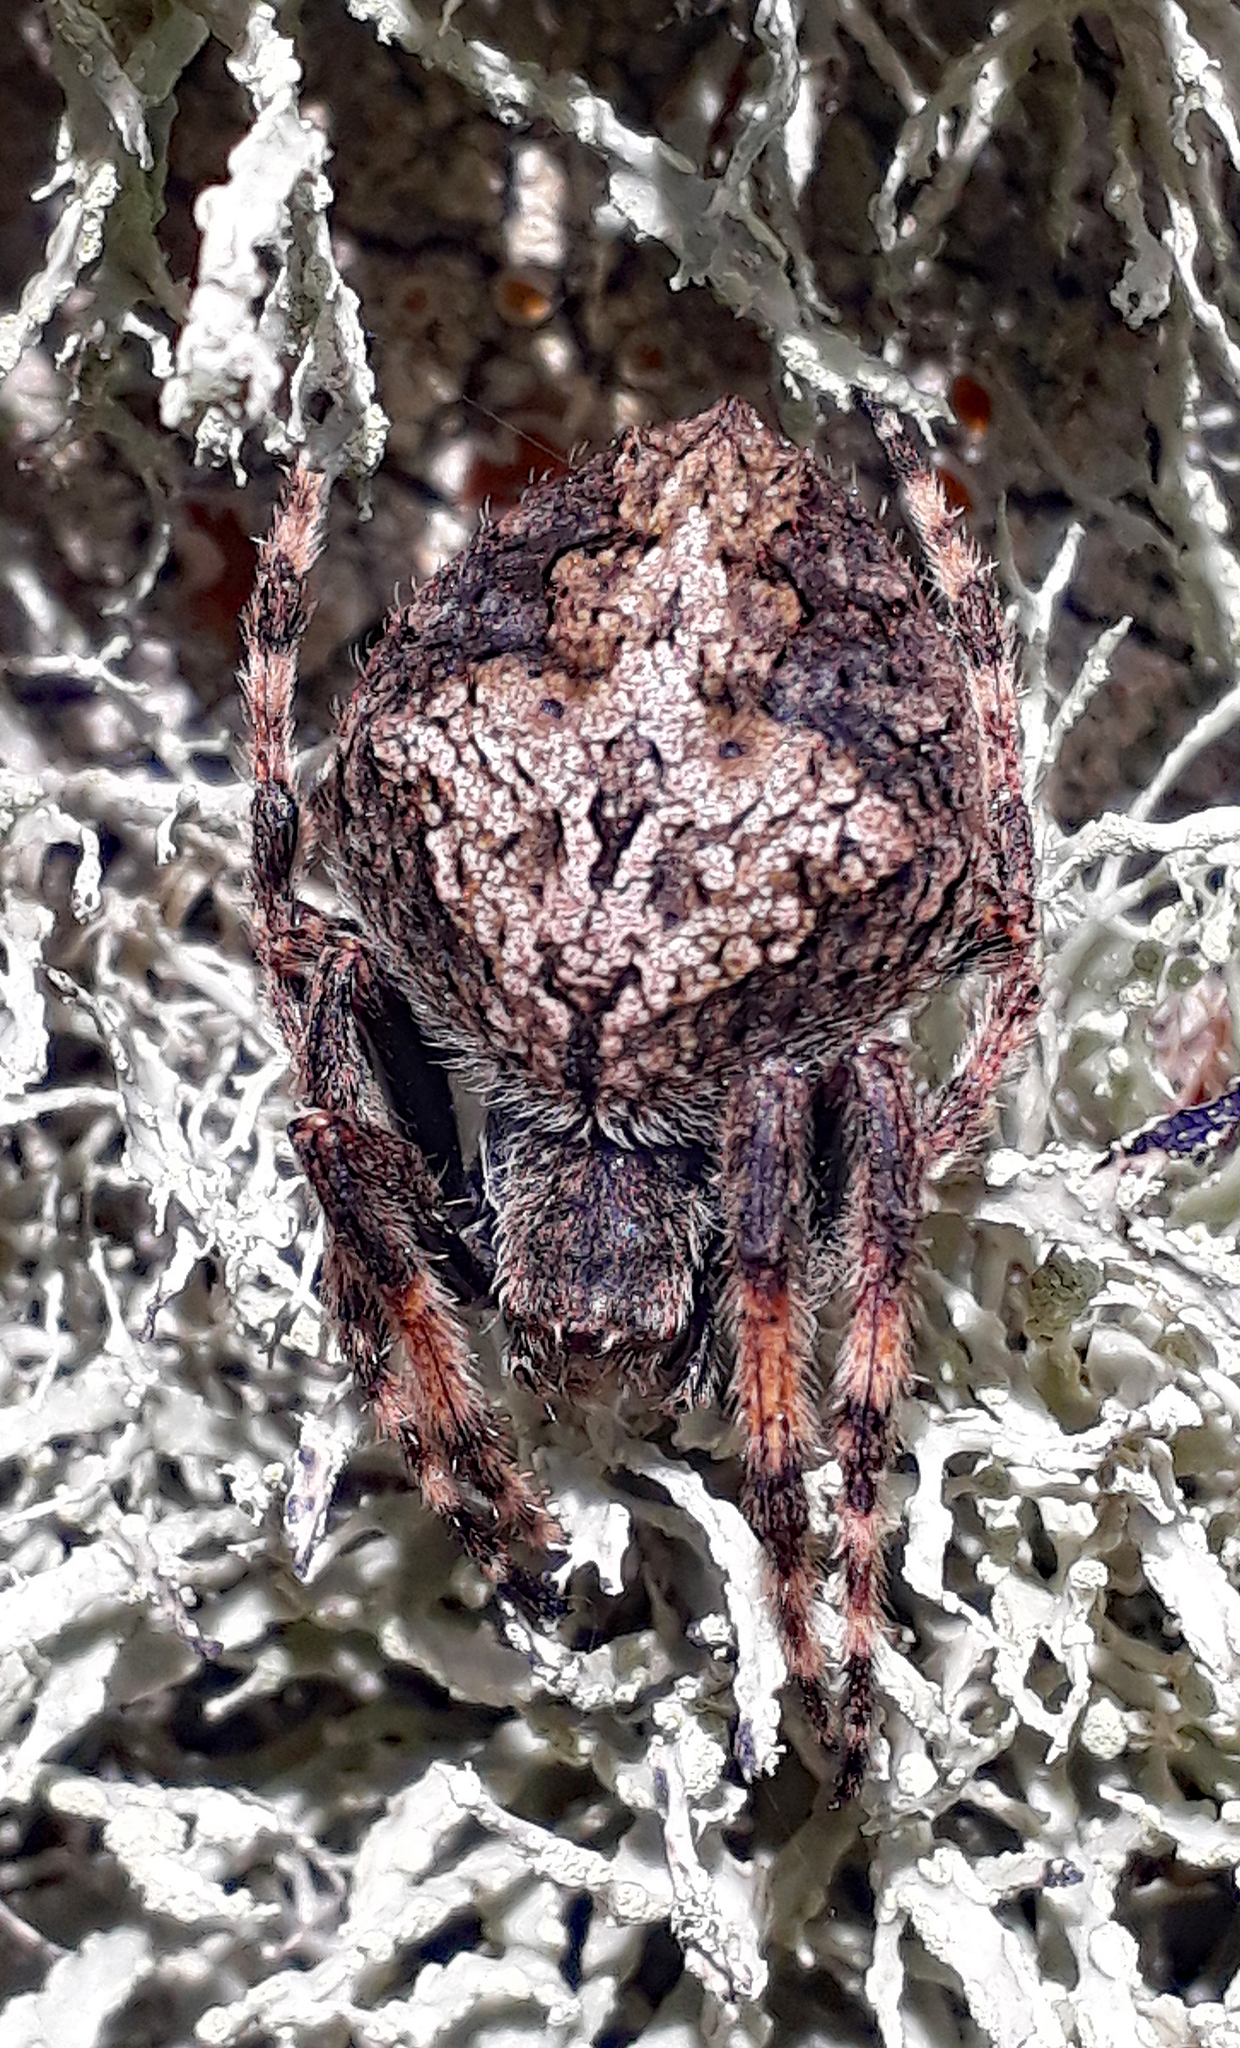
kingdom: Animalia
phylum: Arthropoda
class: Arachnida
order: Araneae
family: Araneidae
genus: Eriophora
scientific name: Eriophora pustulosa
